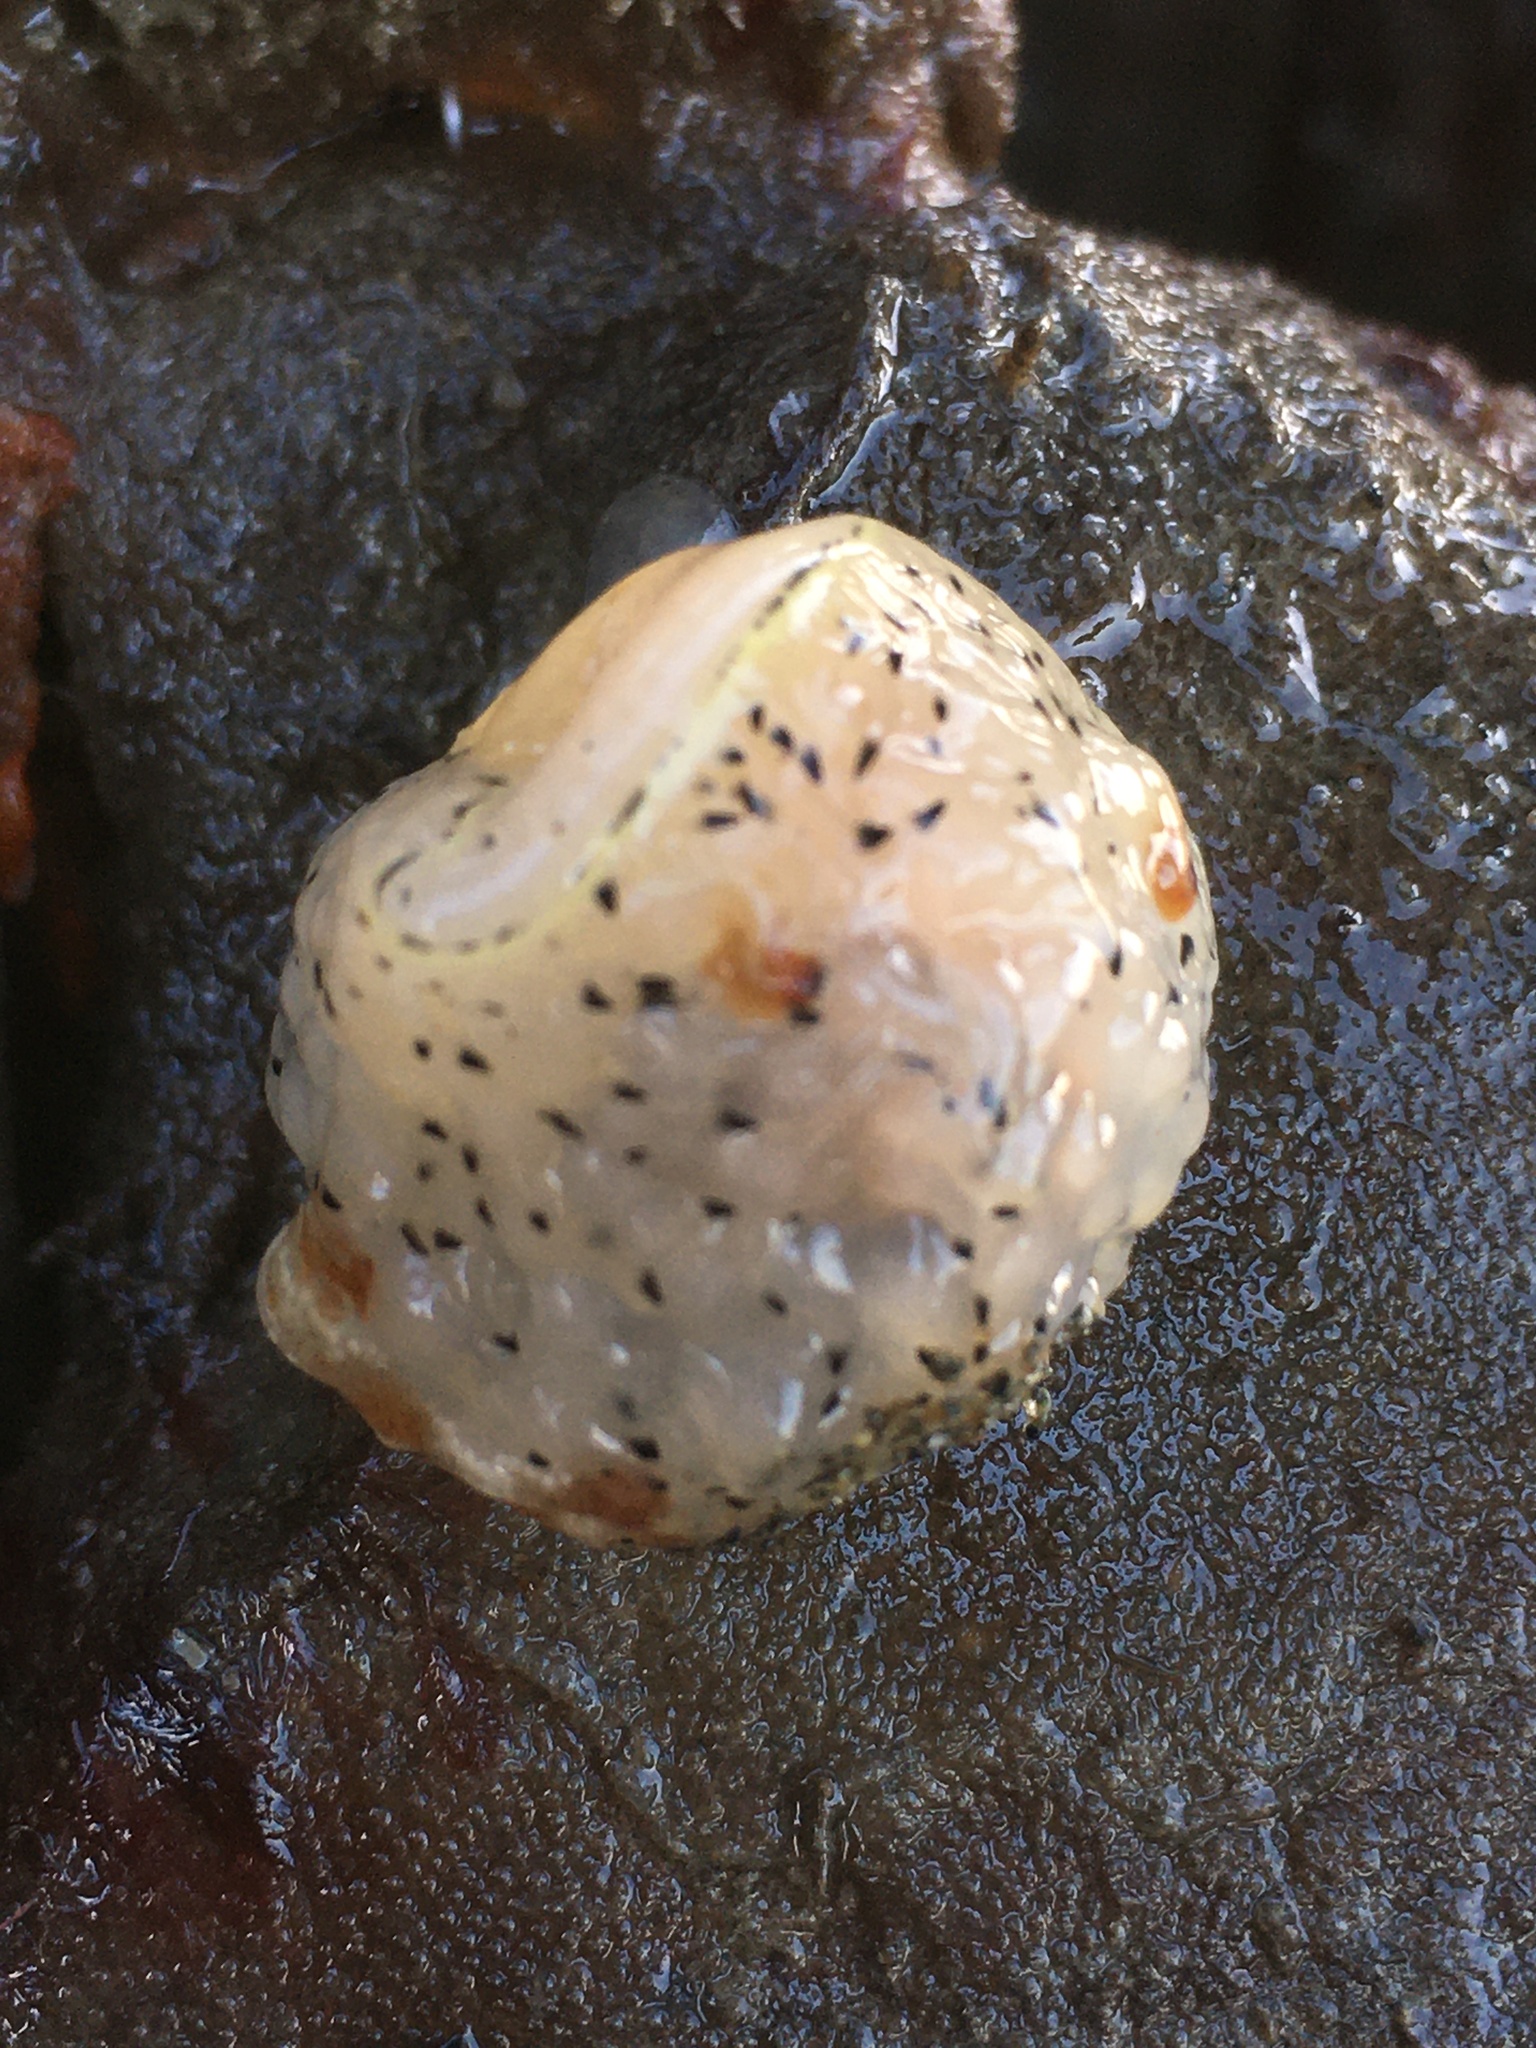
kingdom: Animalia
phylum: Mollusca
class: Gastropoda
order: Nudibranchia
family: Onchidorididae
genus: Acanthodoris
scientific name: Acanthodoris rhodoceras
